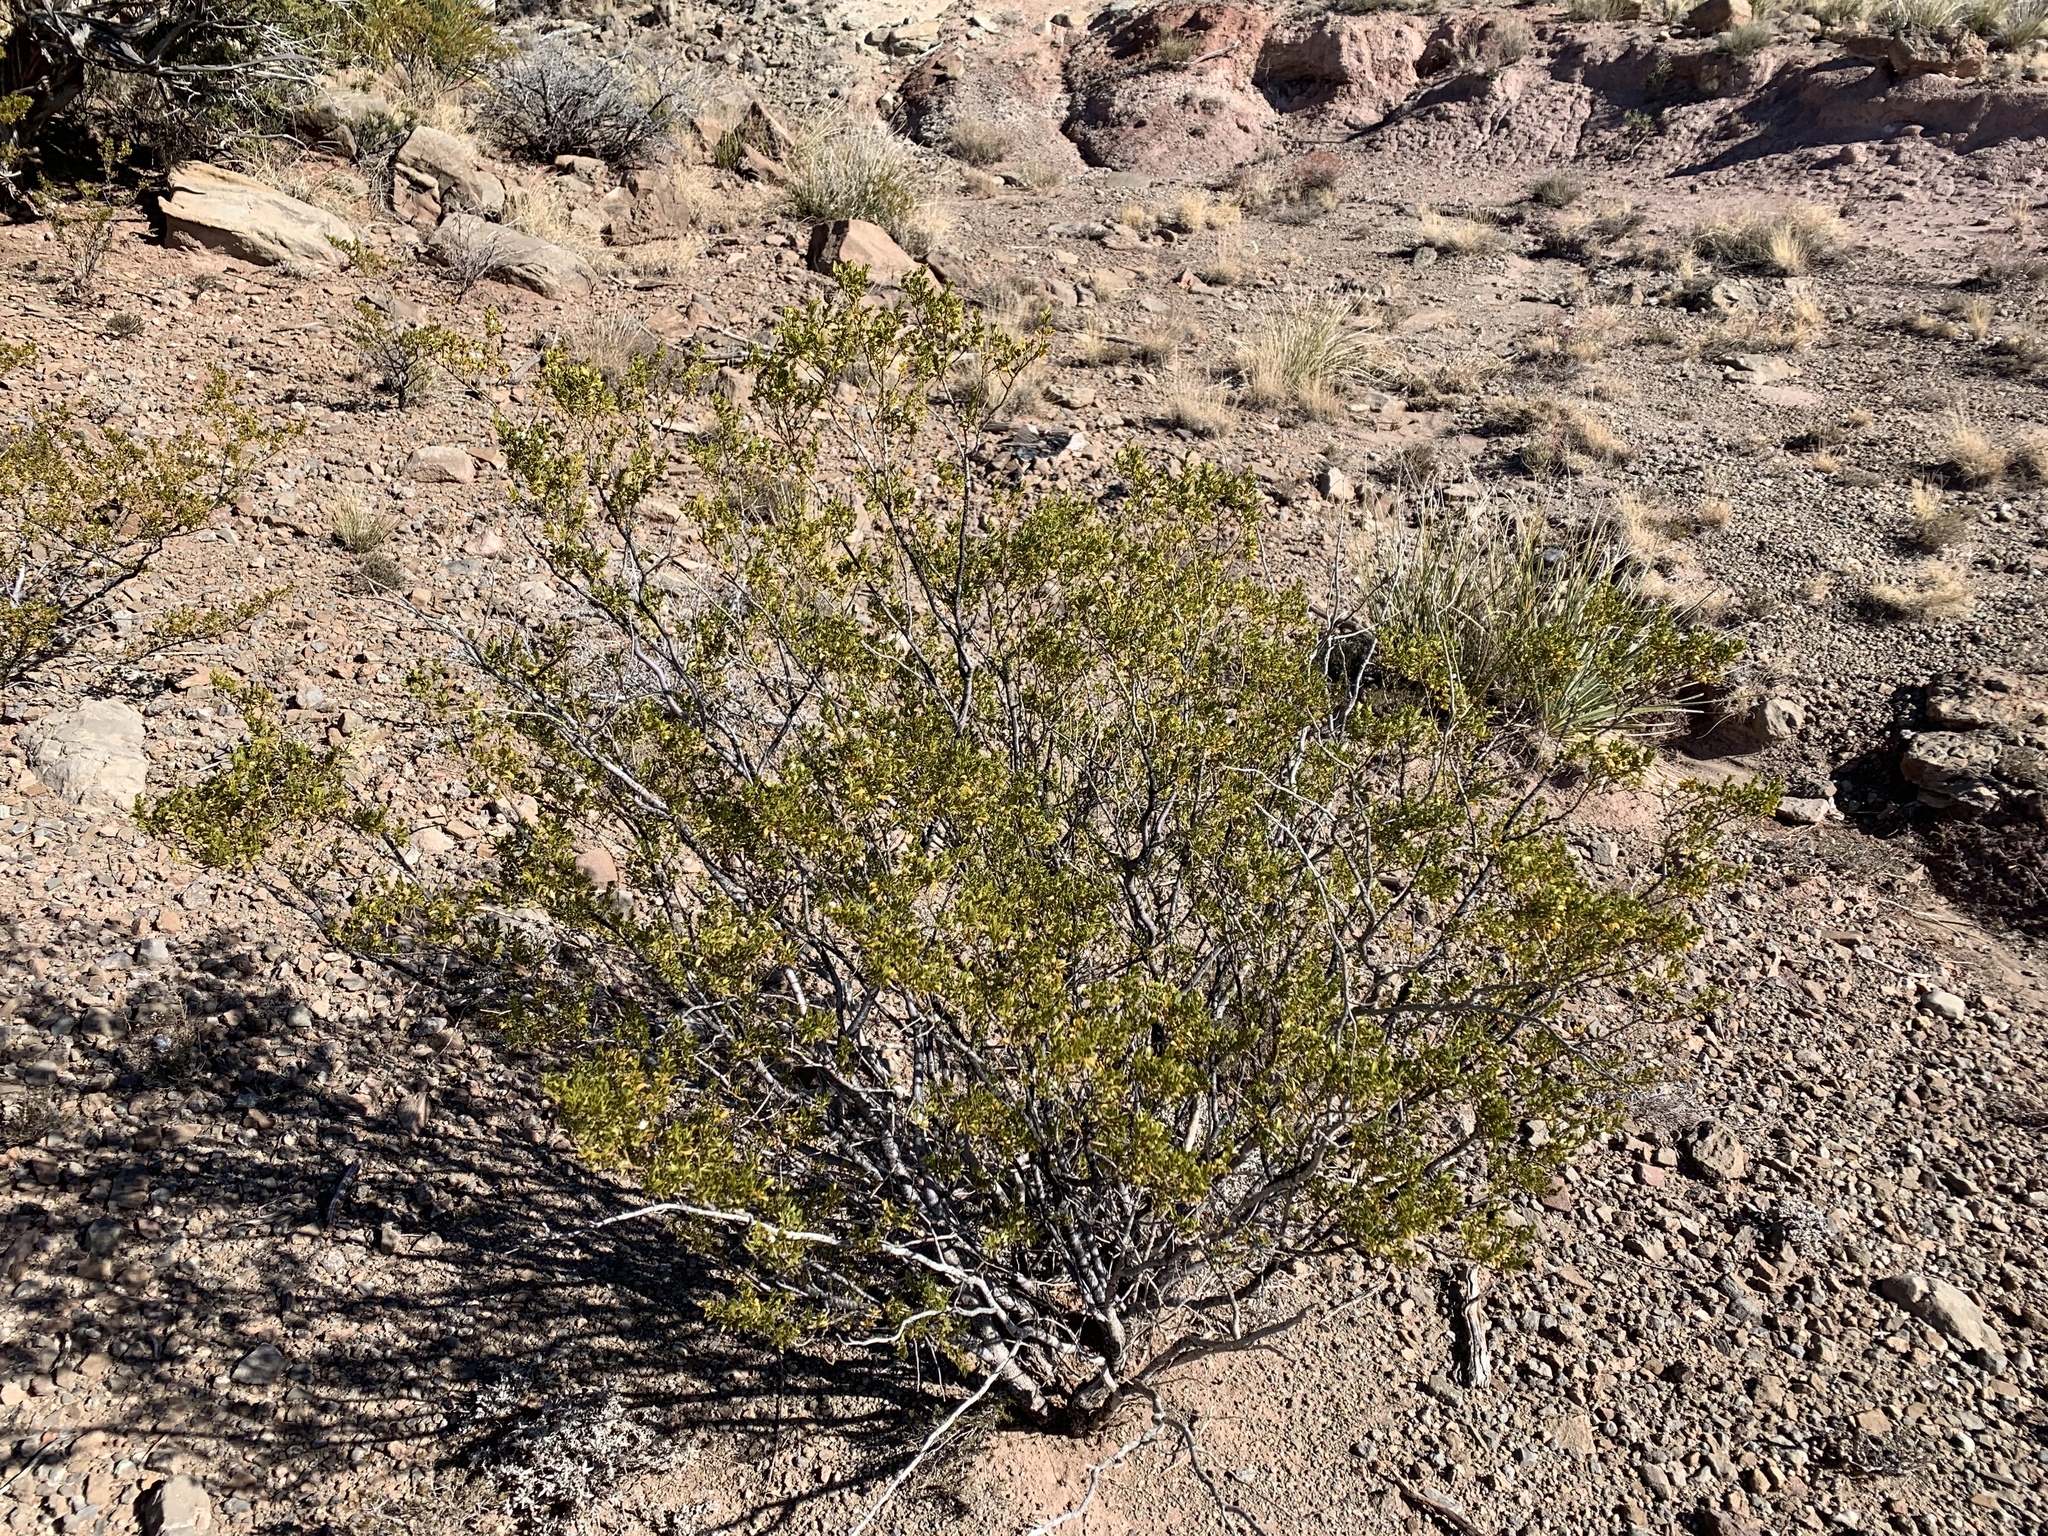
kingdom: Plantae
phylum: Tracheophyta
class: Magnoliopsida
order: Zygophyllales
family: Zygophyllaceae
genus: Larrea
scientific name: Larrea tridentata
